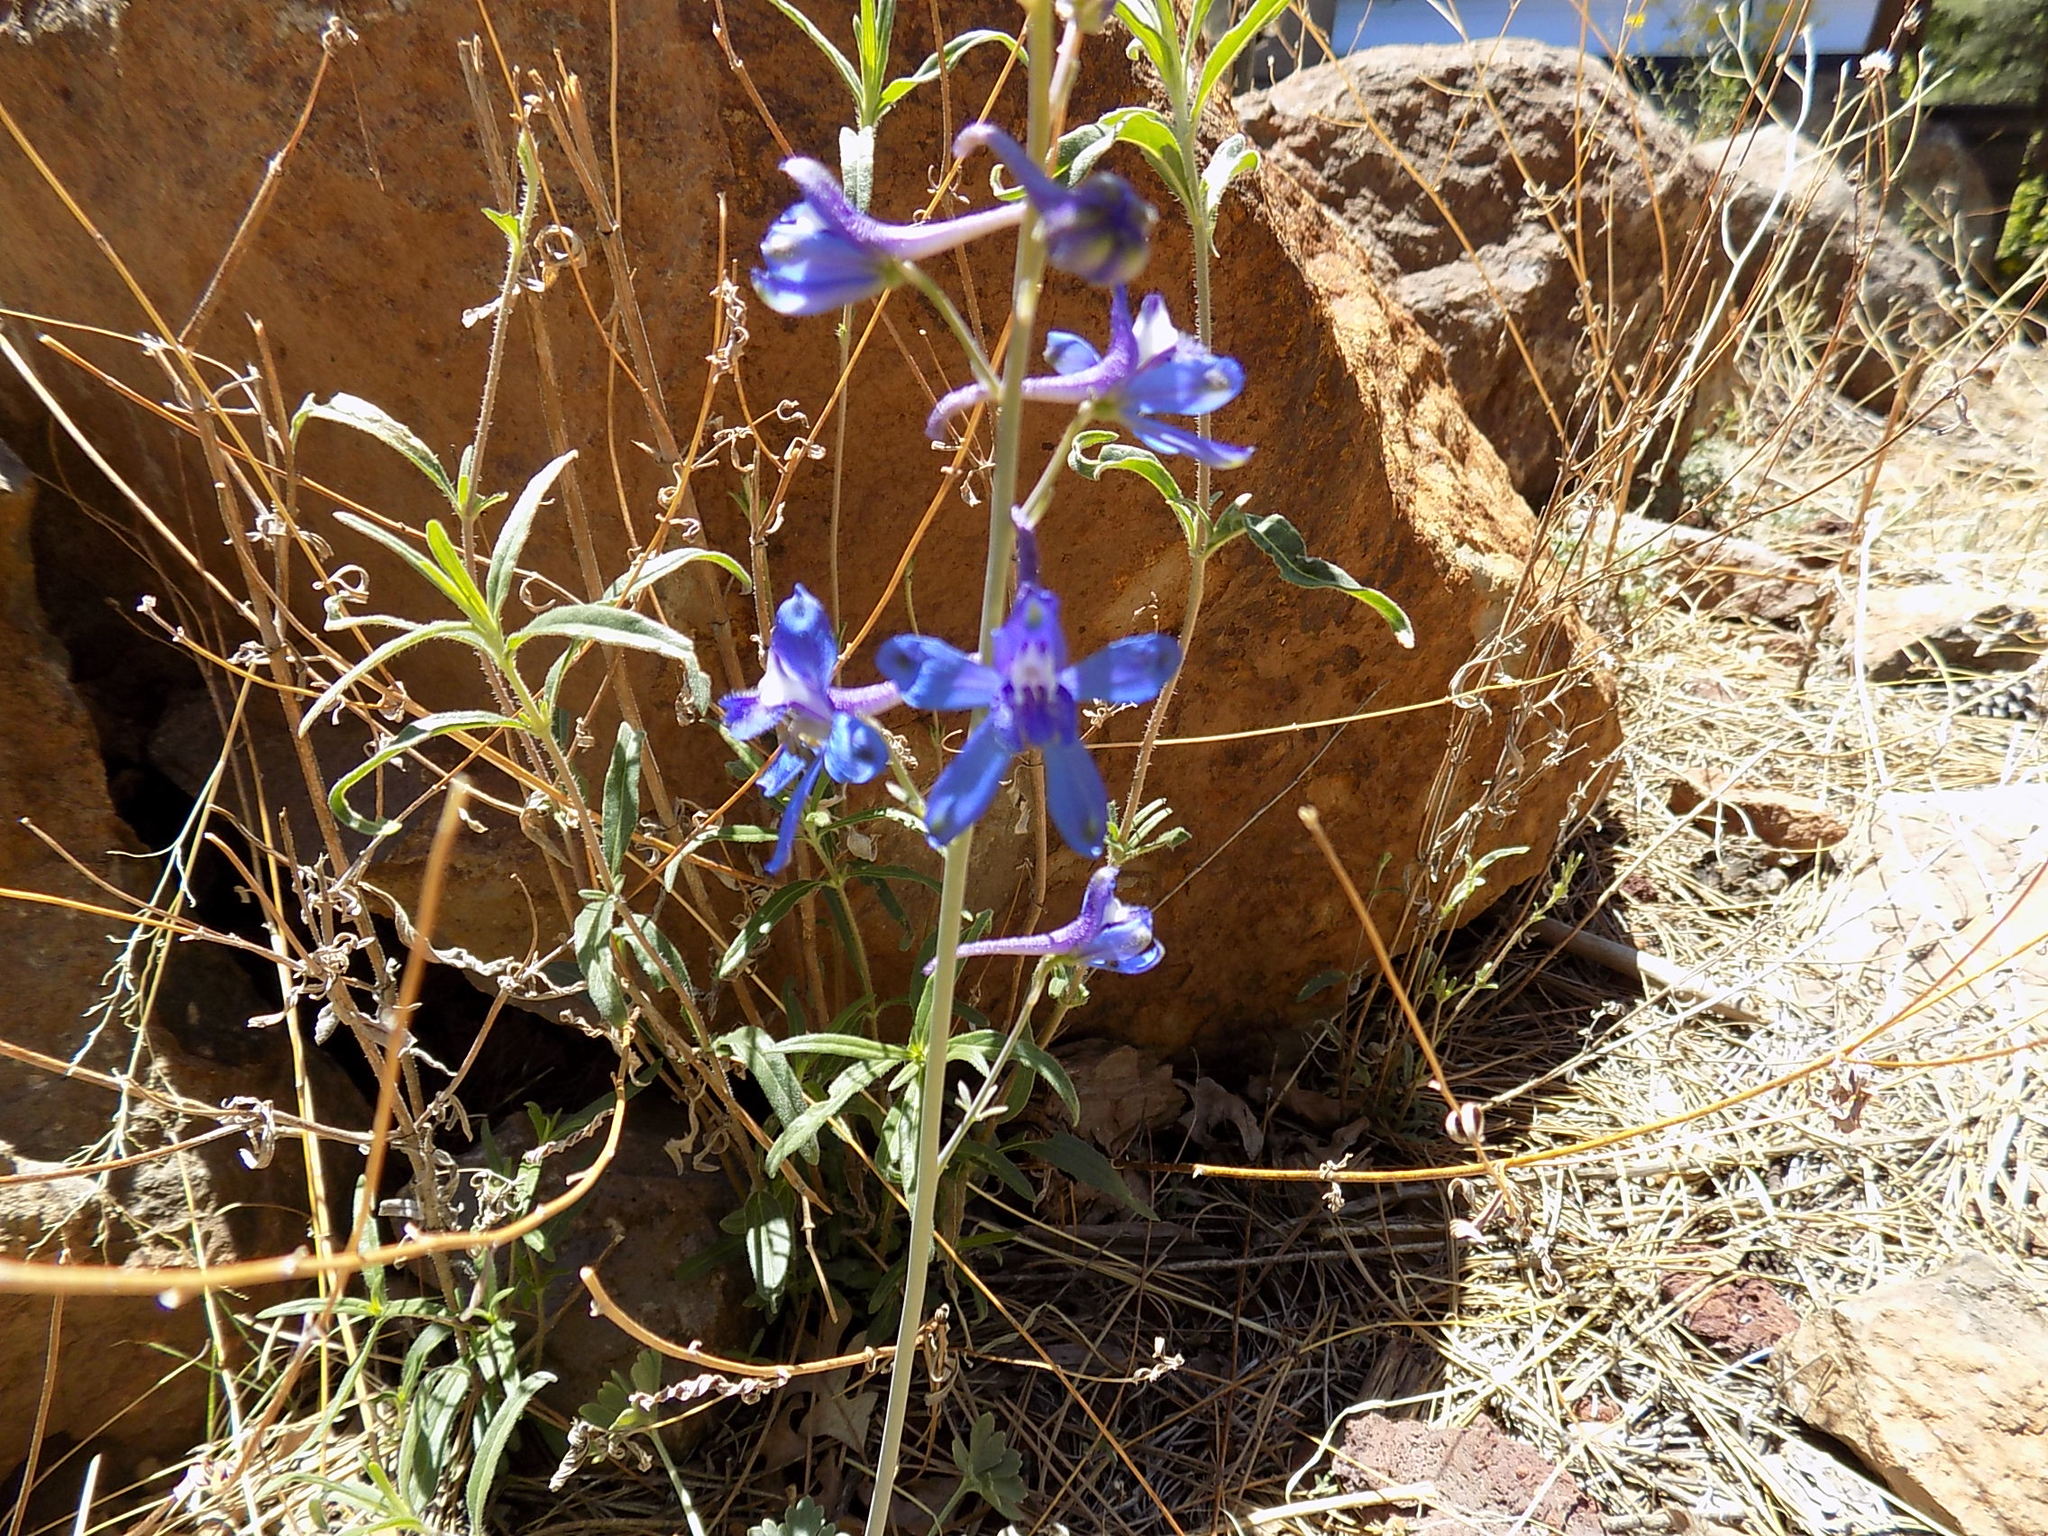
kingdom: Plantae
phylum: Tracheophyta
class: Magnoliopsida
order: Ranunculales
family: Ranunculaceae
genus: Delphinium
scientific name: Delphinium scaposum
